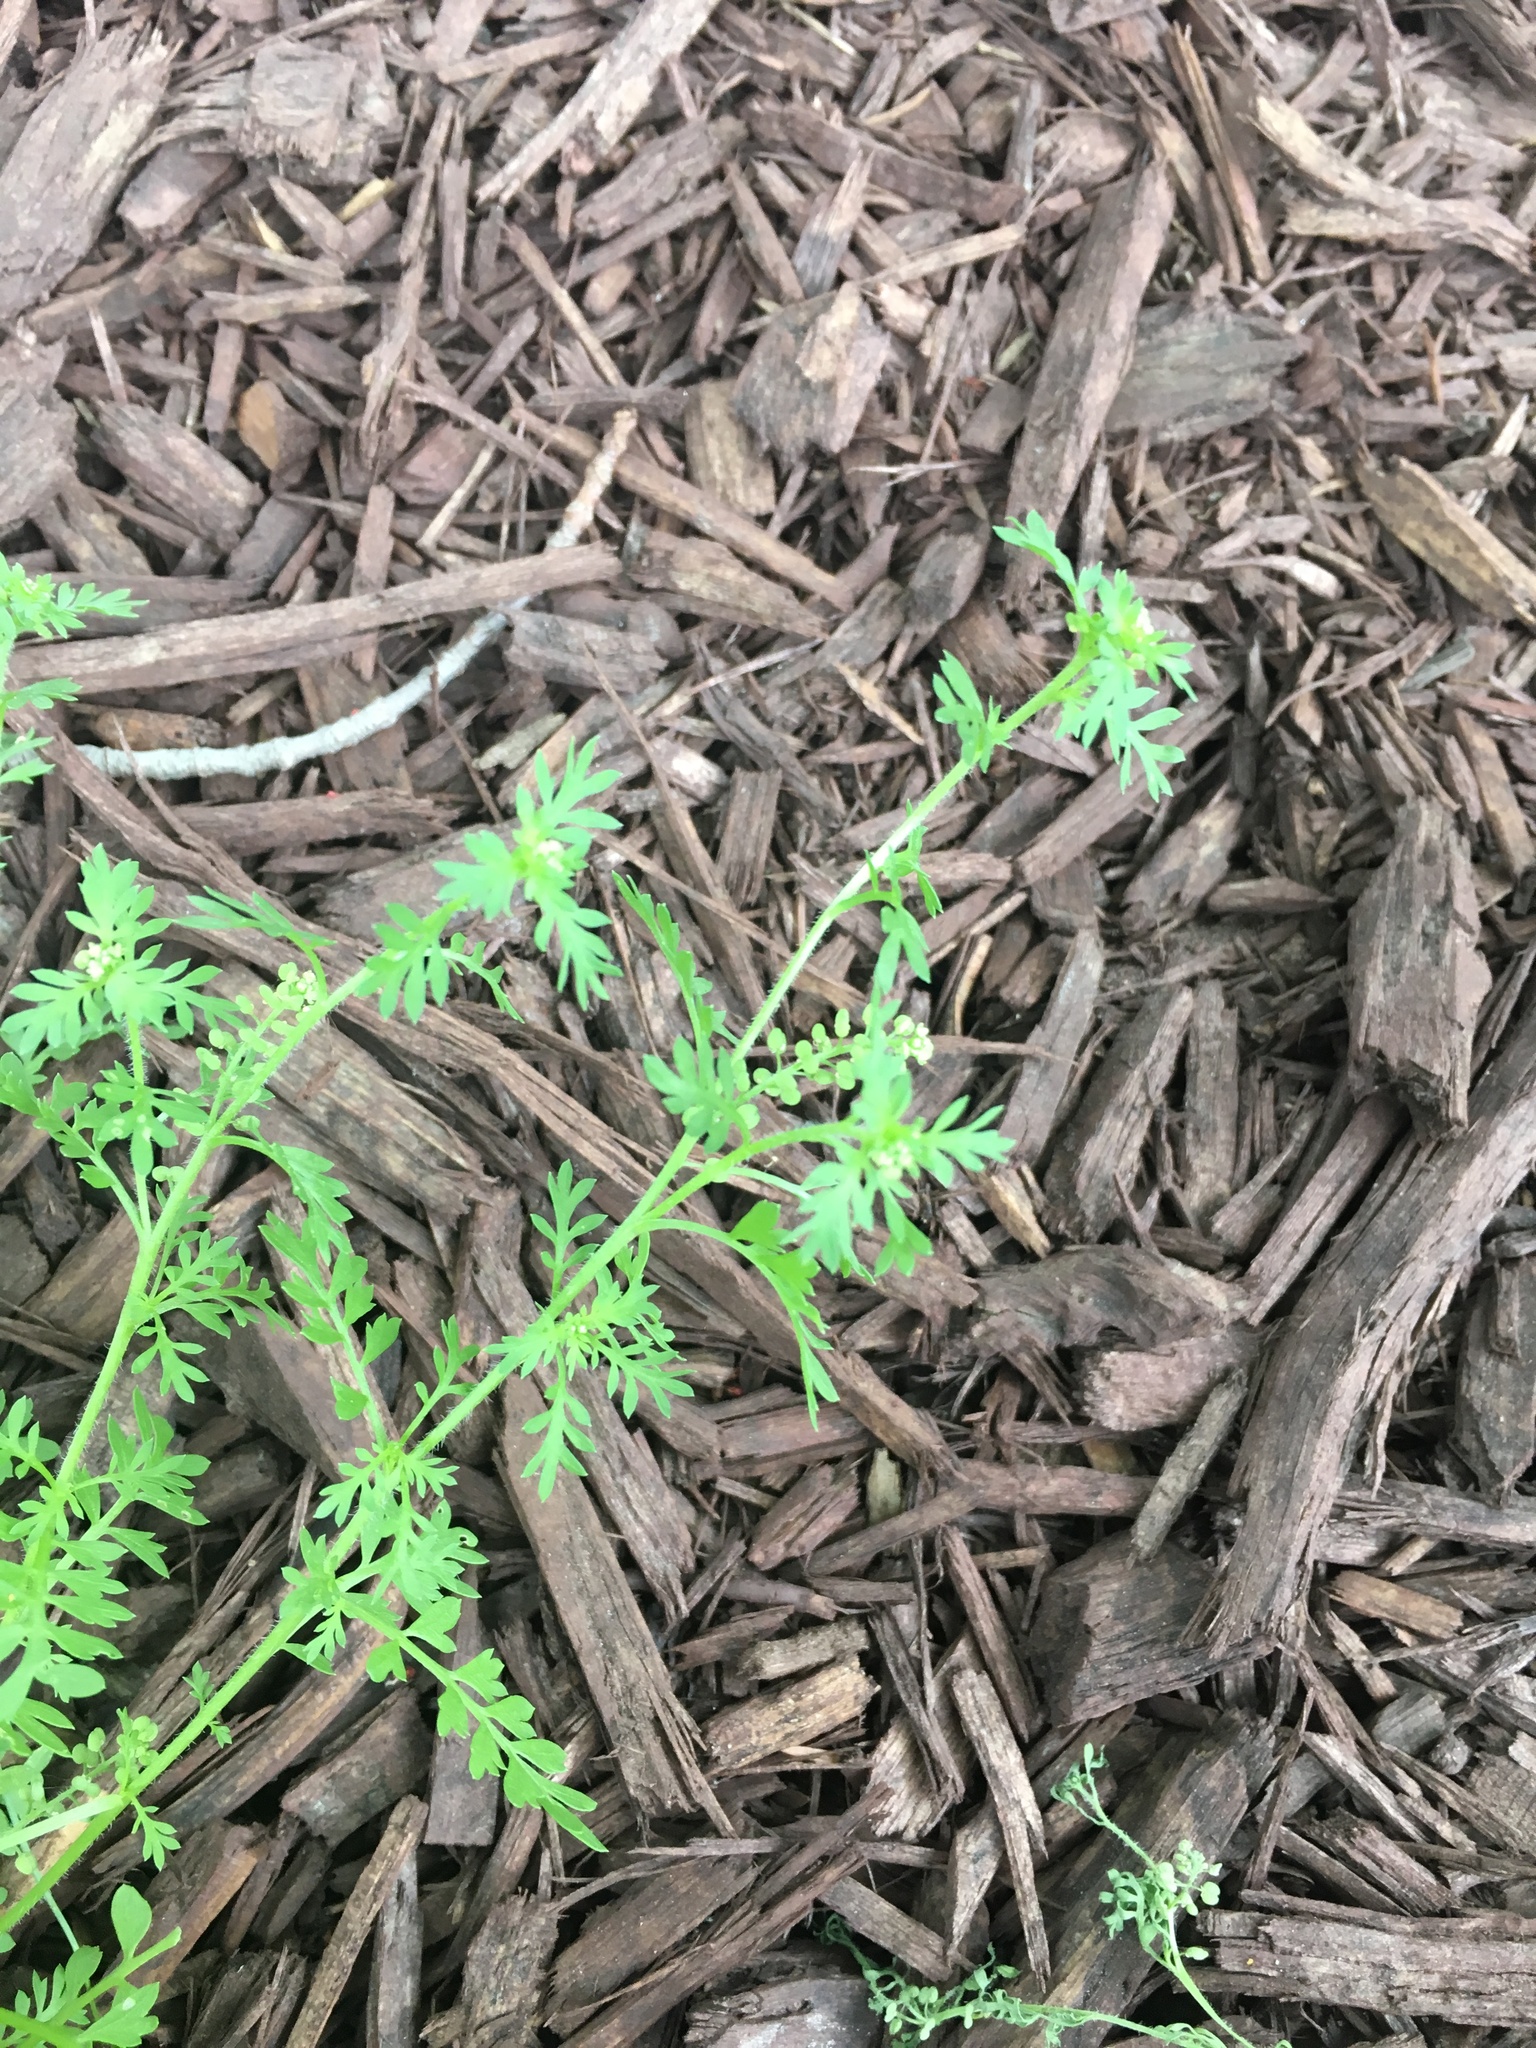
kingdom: Plantae
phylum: Tracheophyta
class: Magnoliopsida
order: Brassicales
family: Brassicaceae
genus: Lepidium
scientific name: Lepidium didymum
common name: Lesser swinecress
